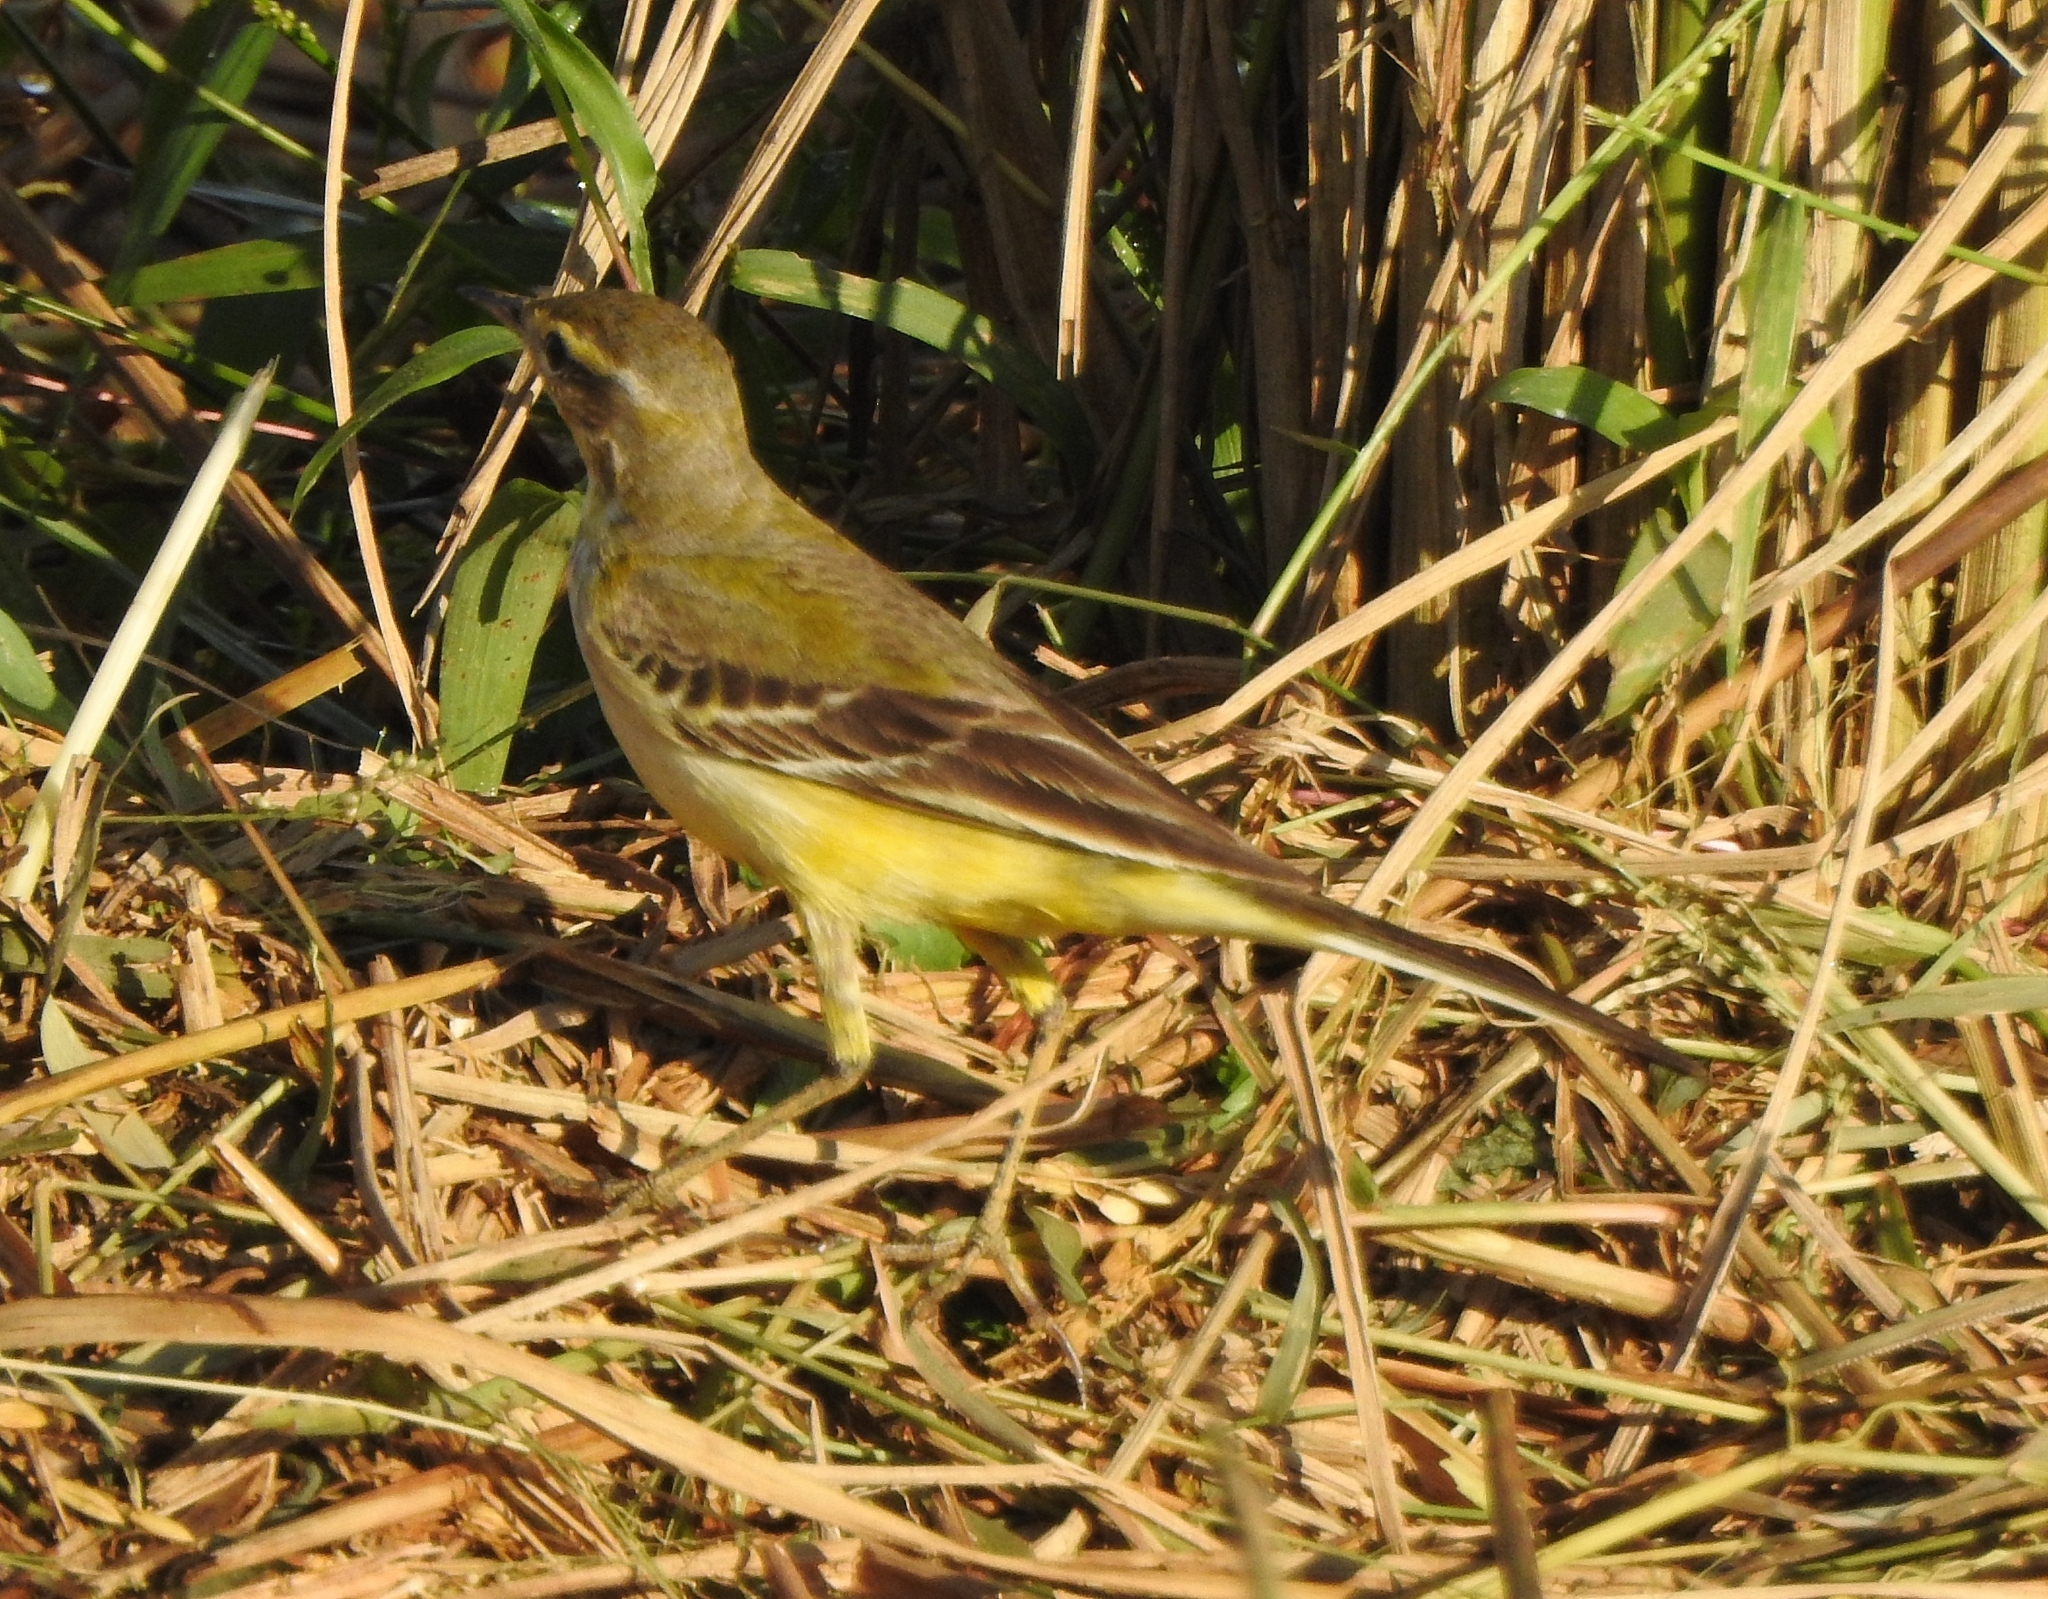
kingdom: Animalia
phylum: Chordata
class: Aves
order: Passeriformes
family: Motacillidae
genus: Motacilla
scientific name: Motacilla flava
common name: Western yellow wagtail
